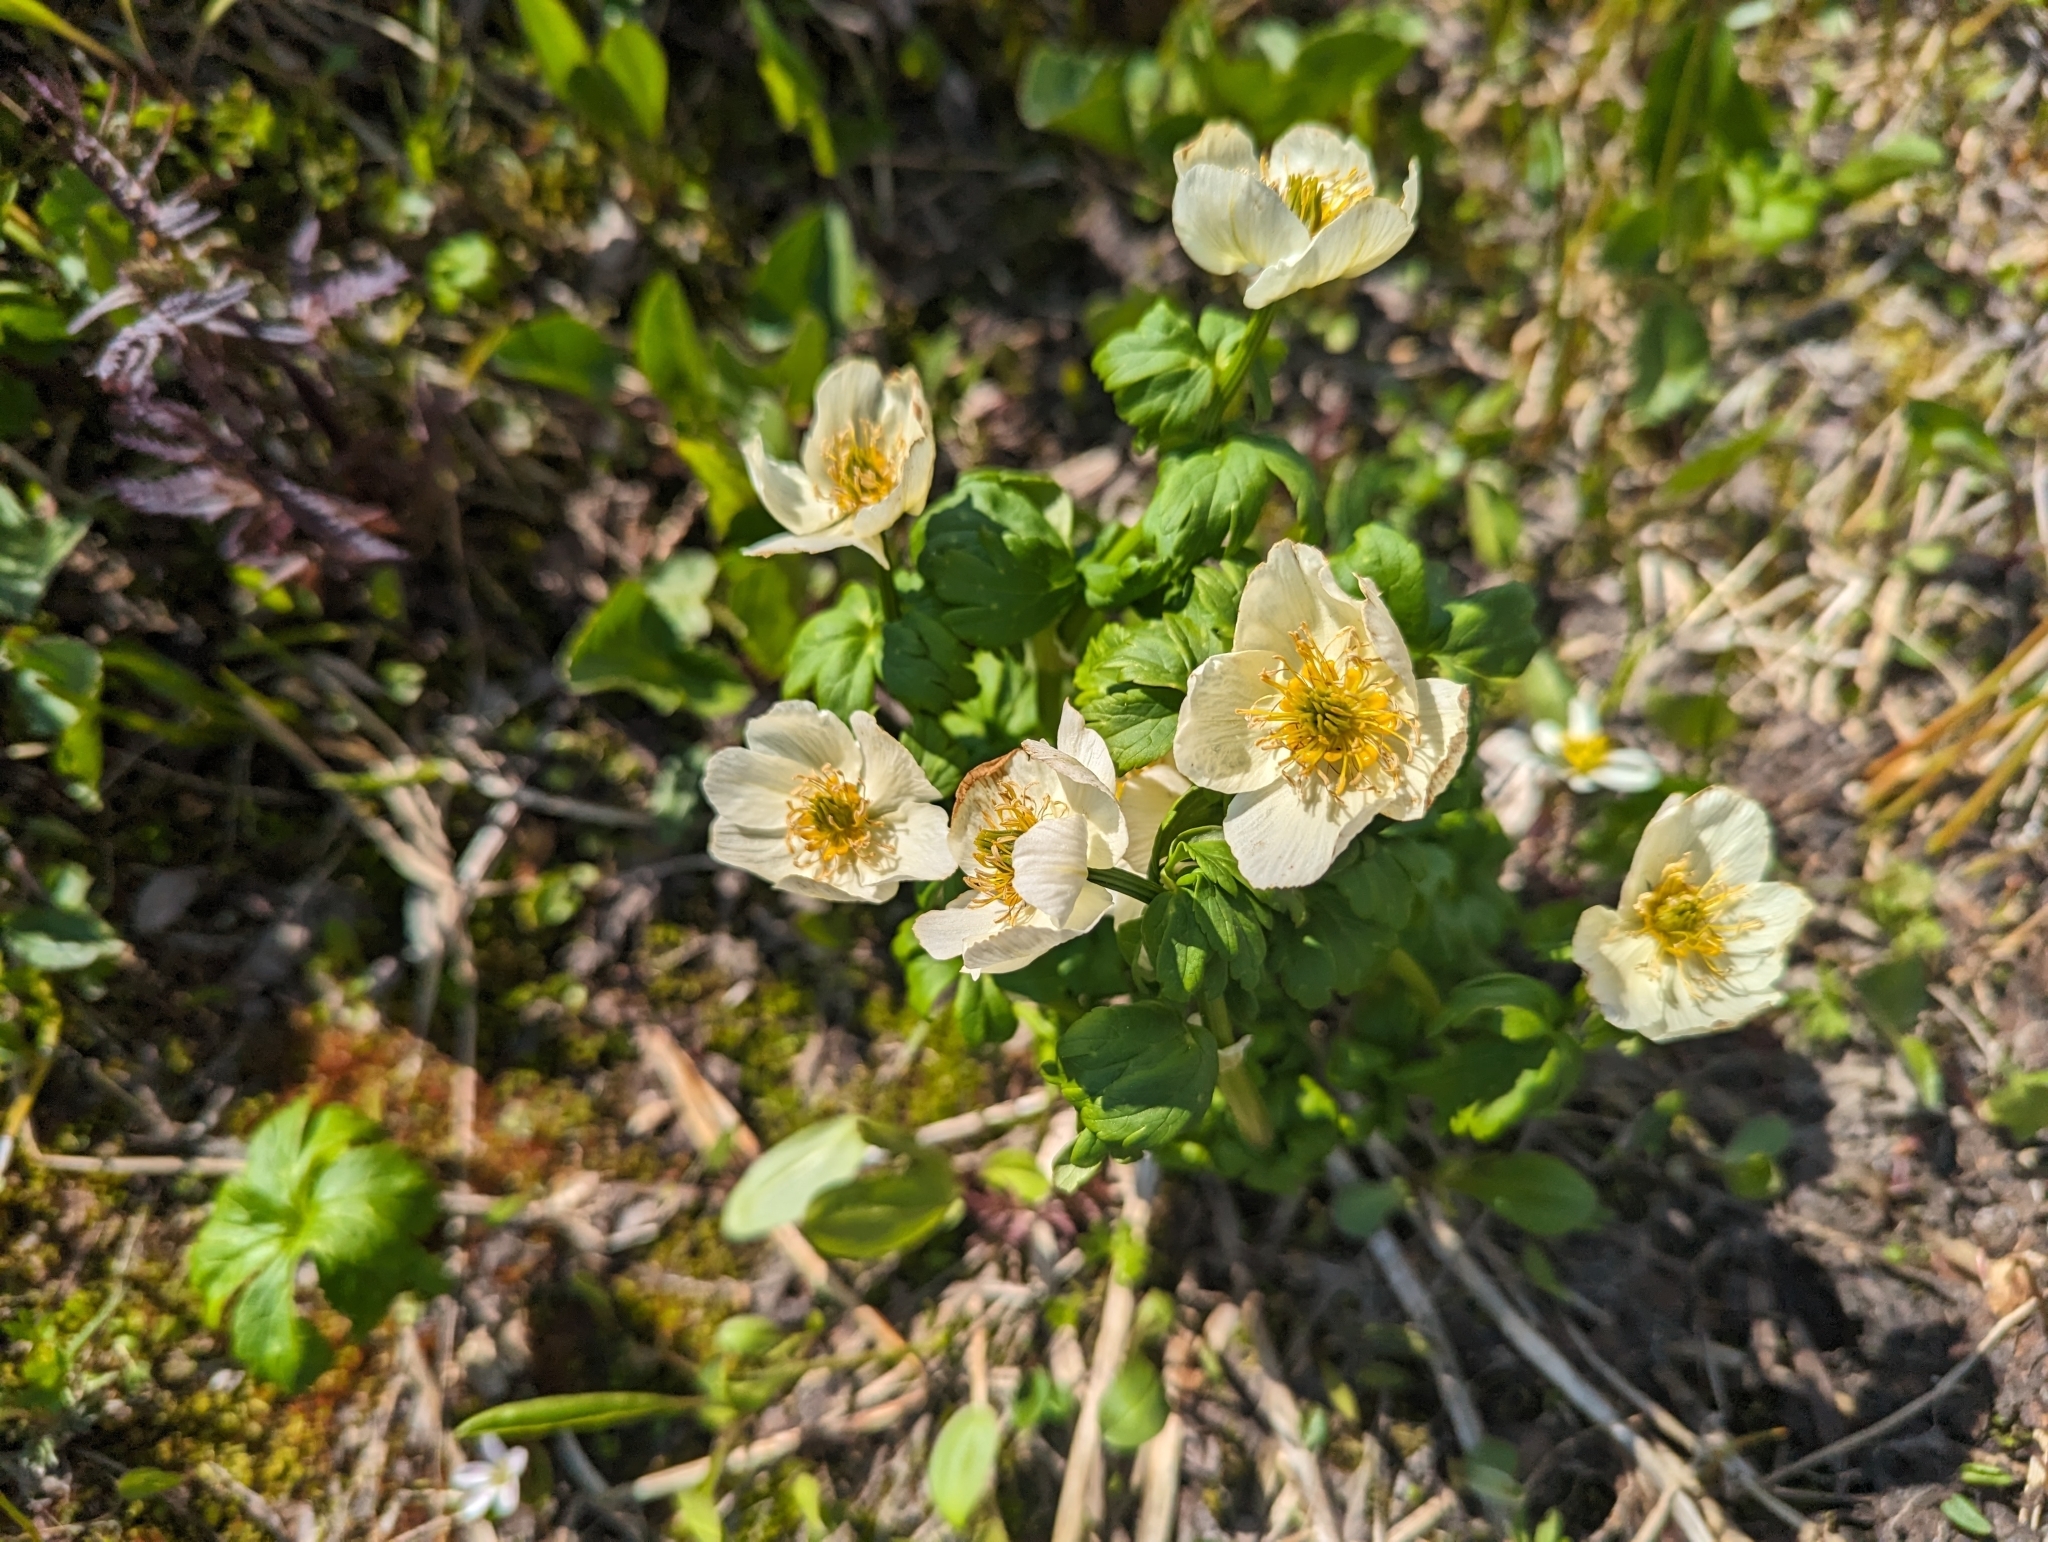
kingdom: Plantae
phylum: Tracheophyta
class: Magnoliopsida
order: Ranunculales
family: Ranunculaceae
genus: Trollius
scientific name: Trollius laxus
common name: American globeflower
